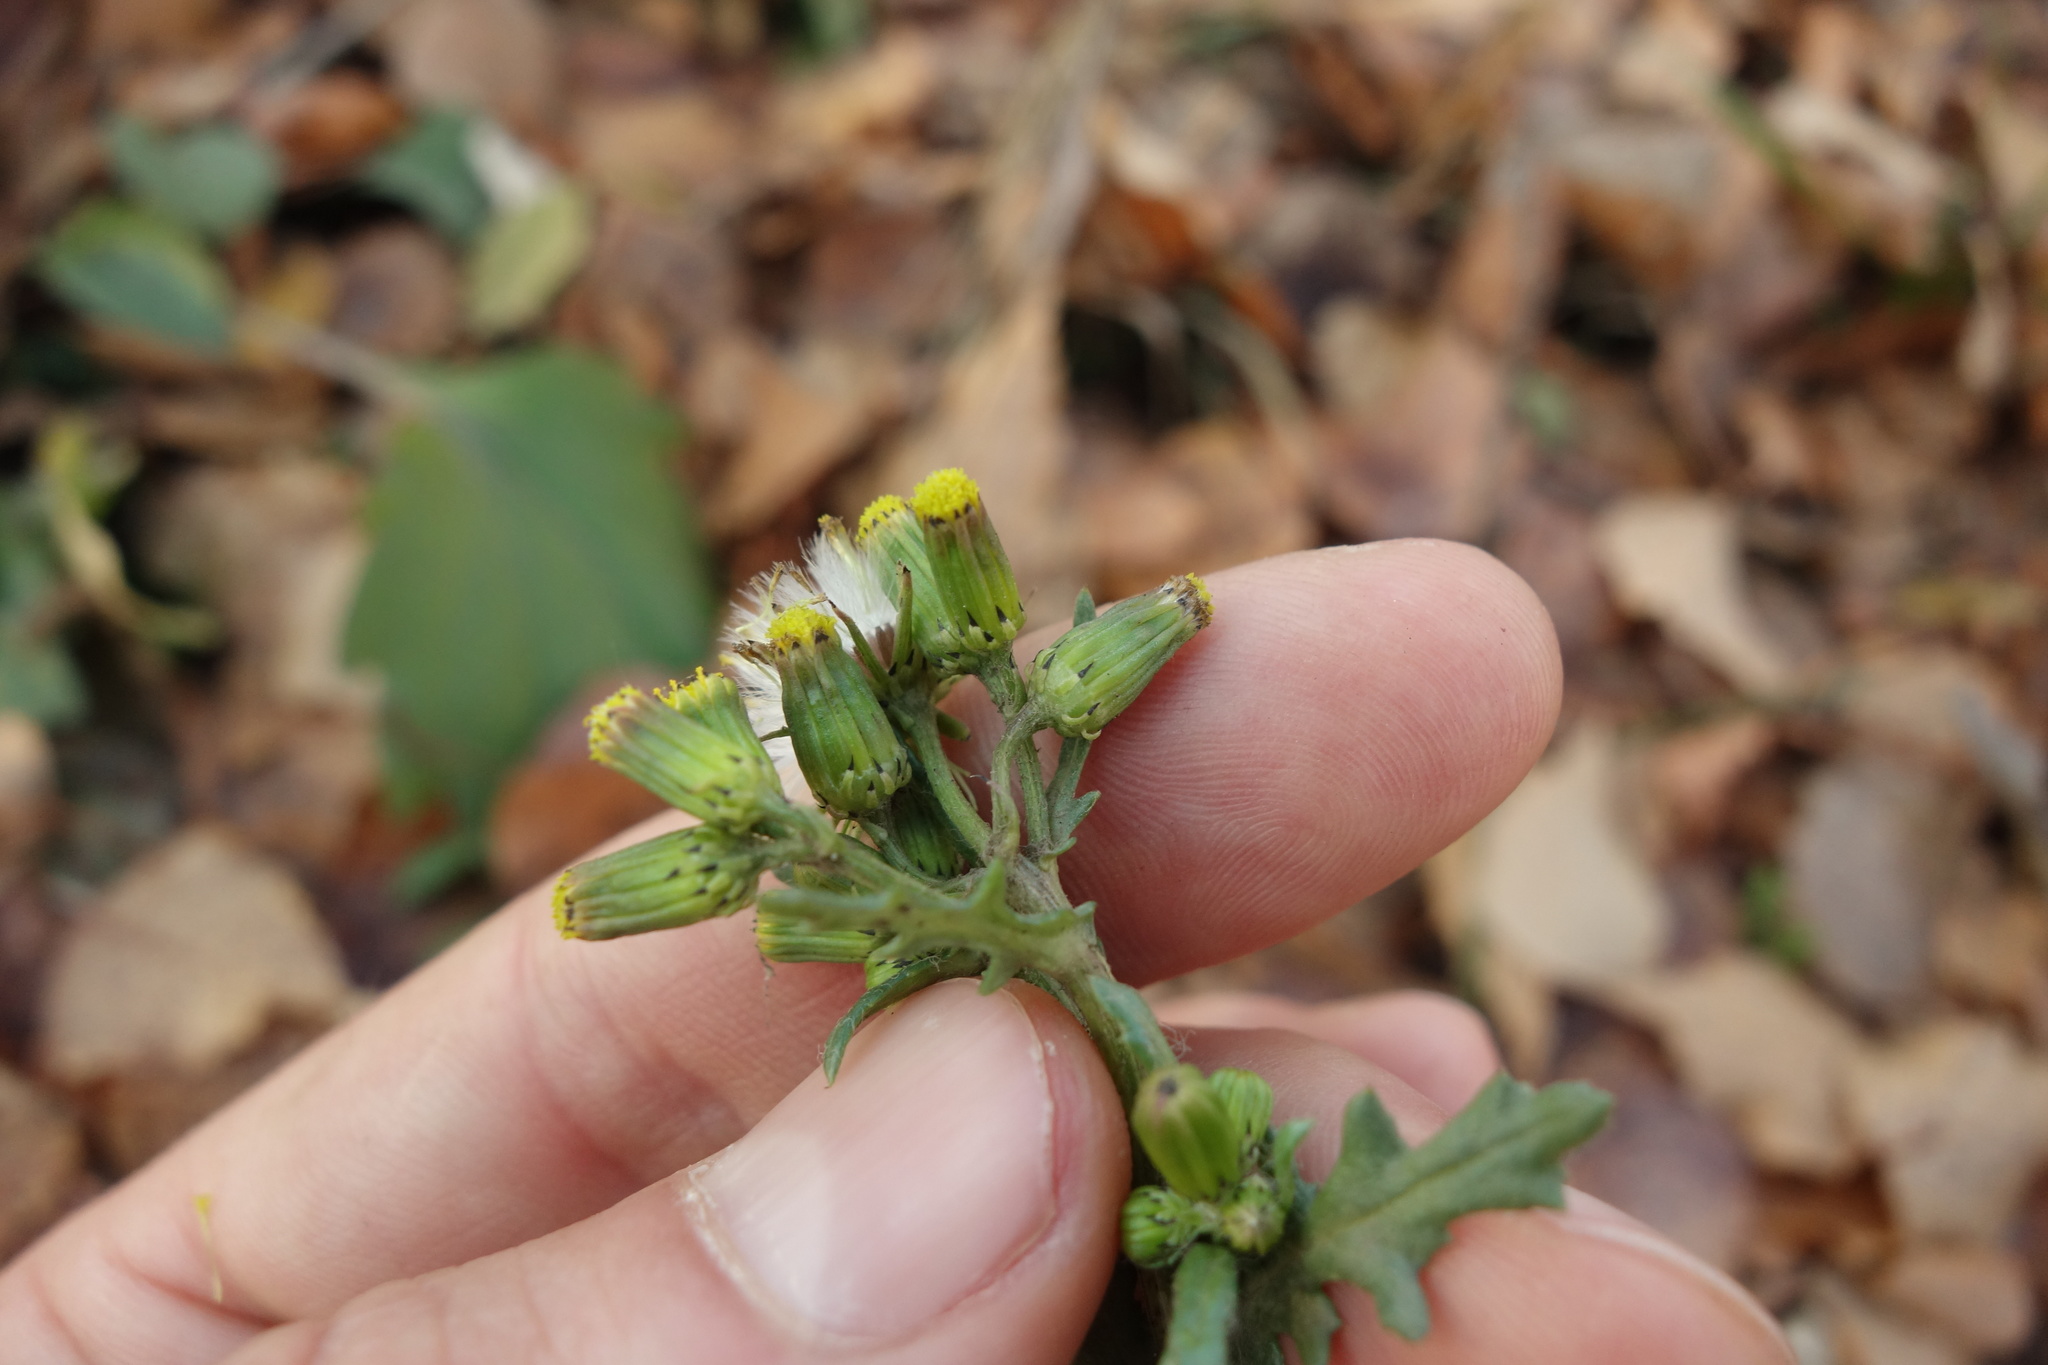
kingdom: Plantae
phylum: Tracheophyta
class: Magnoliopsida
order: Asterales
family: Asteraceae
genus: Senecio
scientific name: Senecio vulgaris
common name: Old-man-in-the-spring
